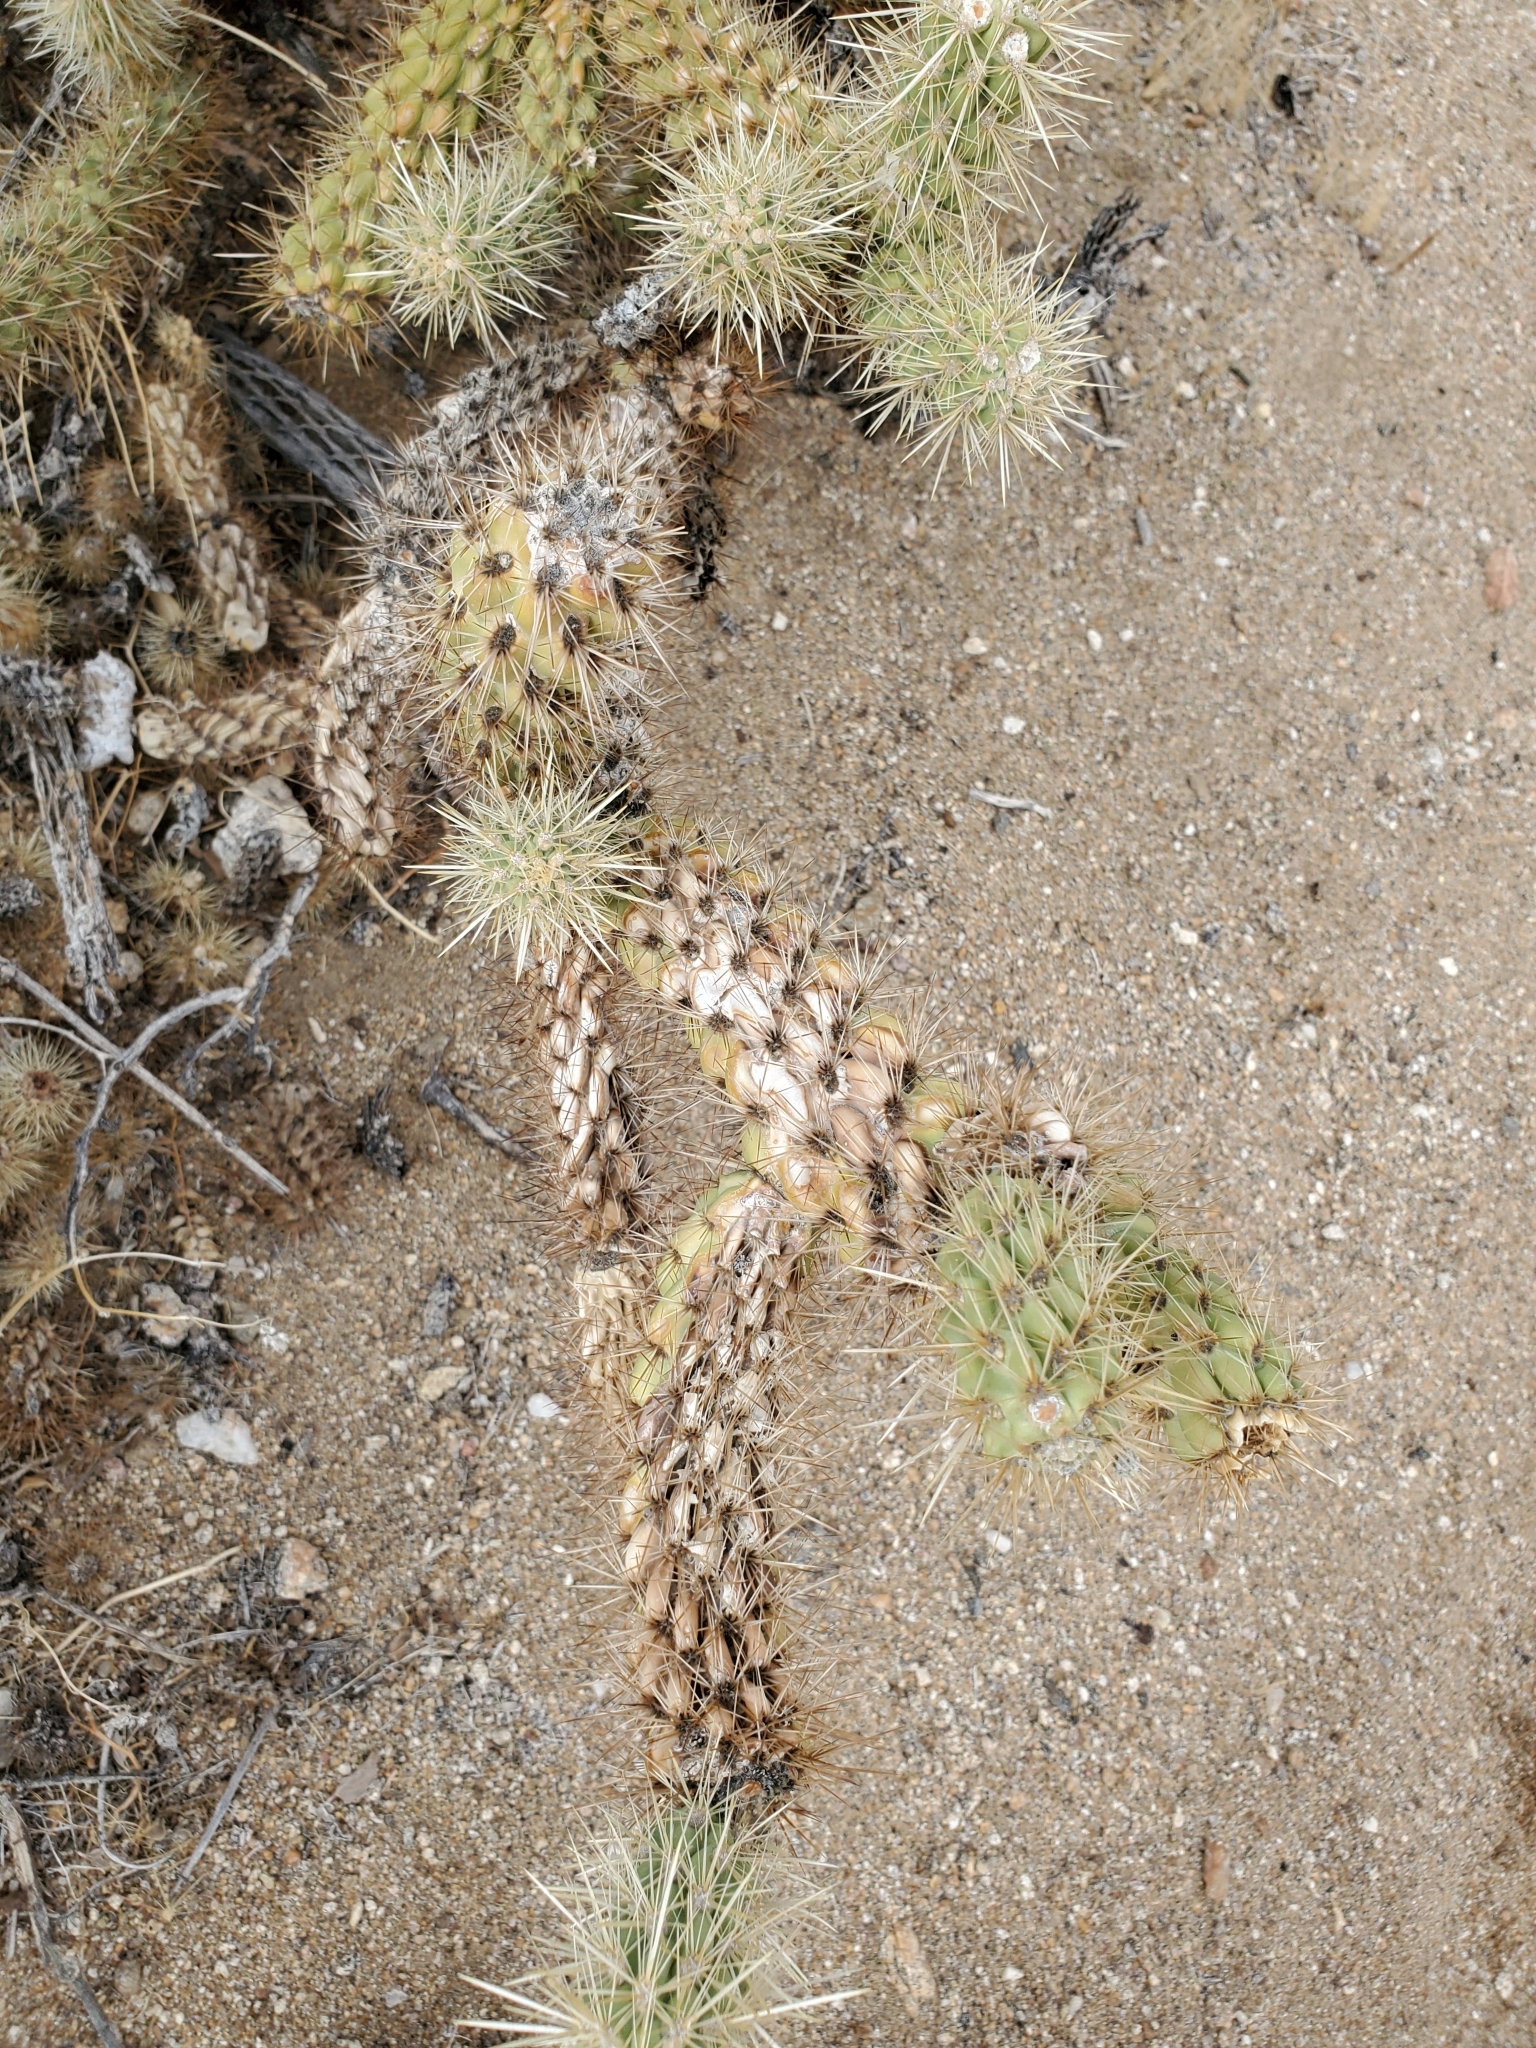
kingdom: Plantae
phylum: Tracheophyta
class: Magnoliopsida
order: Caryophyllales
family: Cactaceae
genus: Cylindropuntia
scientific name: Cylindropuntia ganderi
